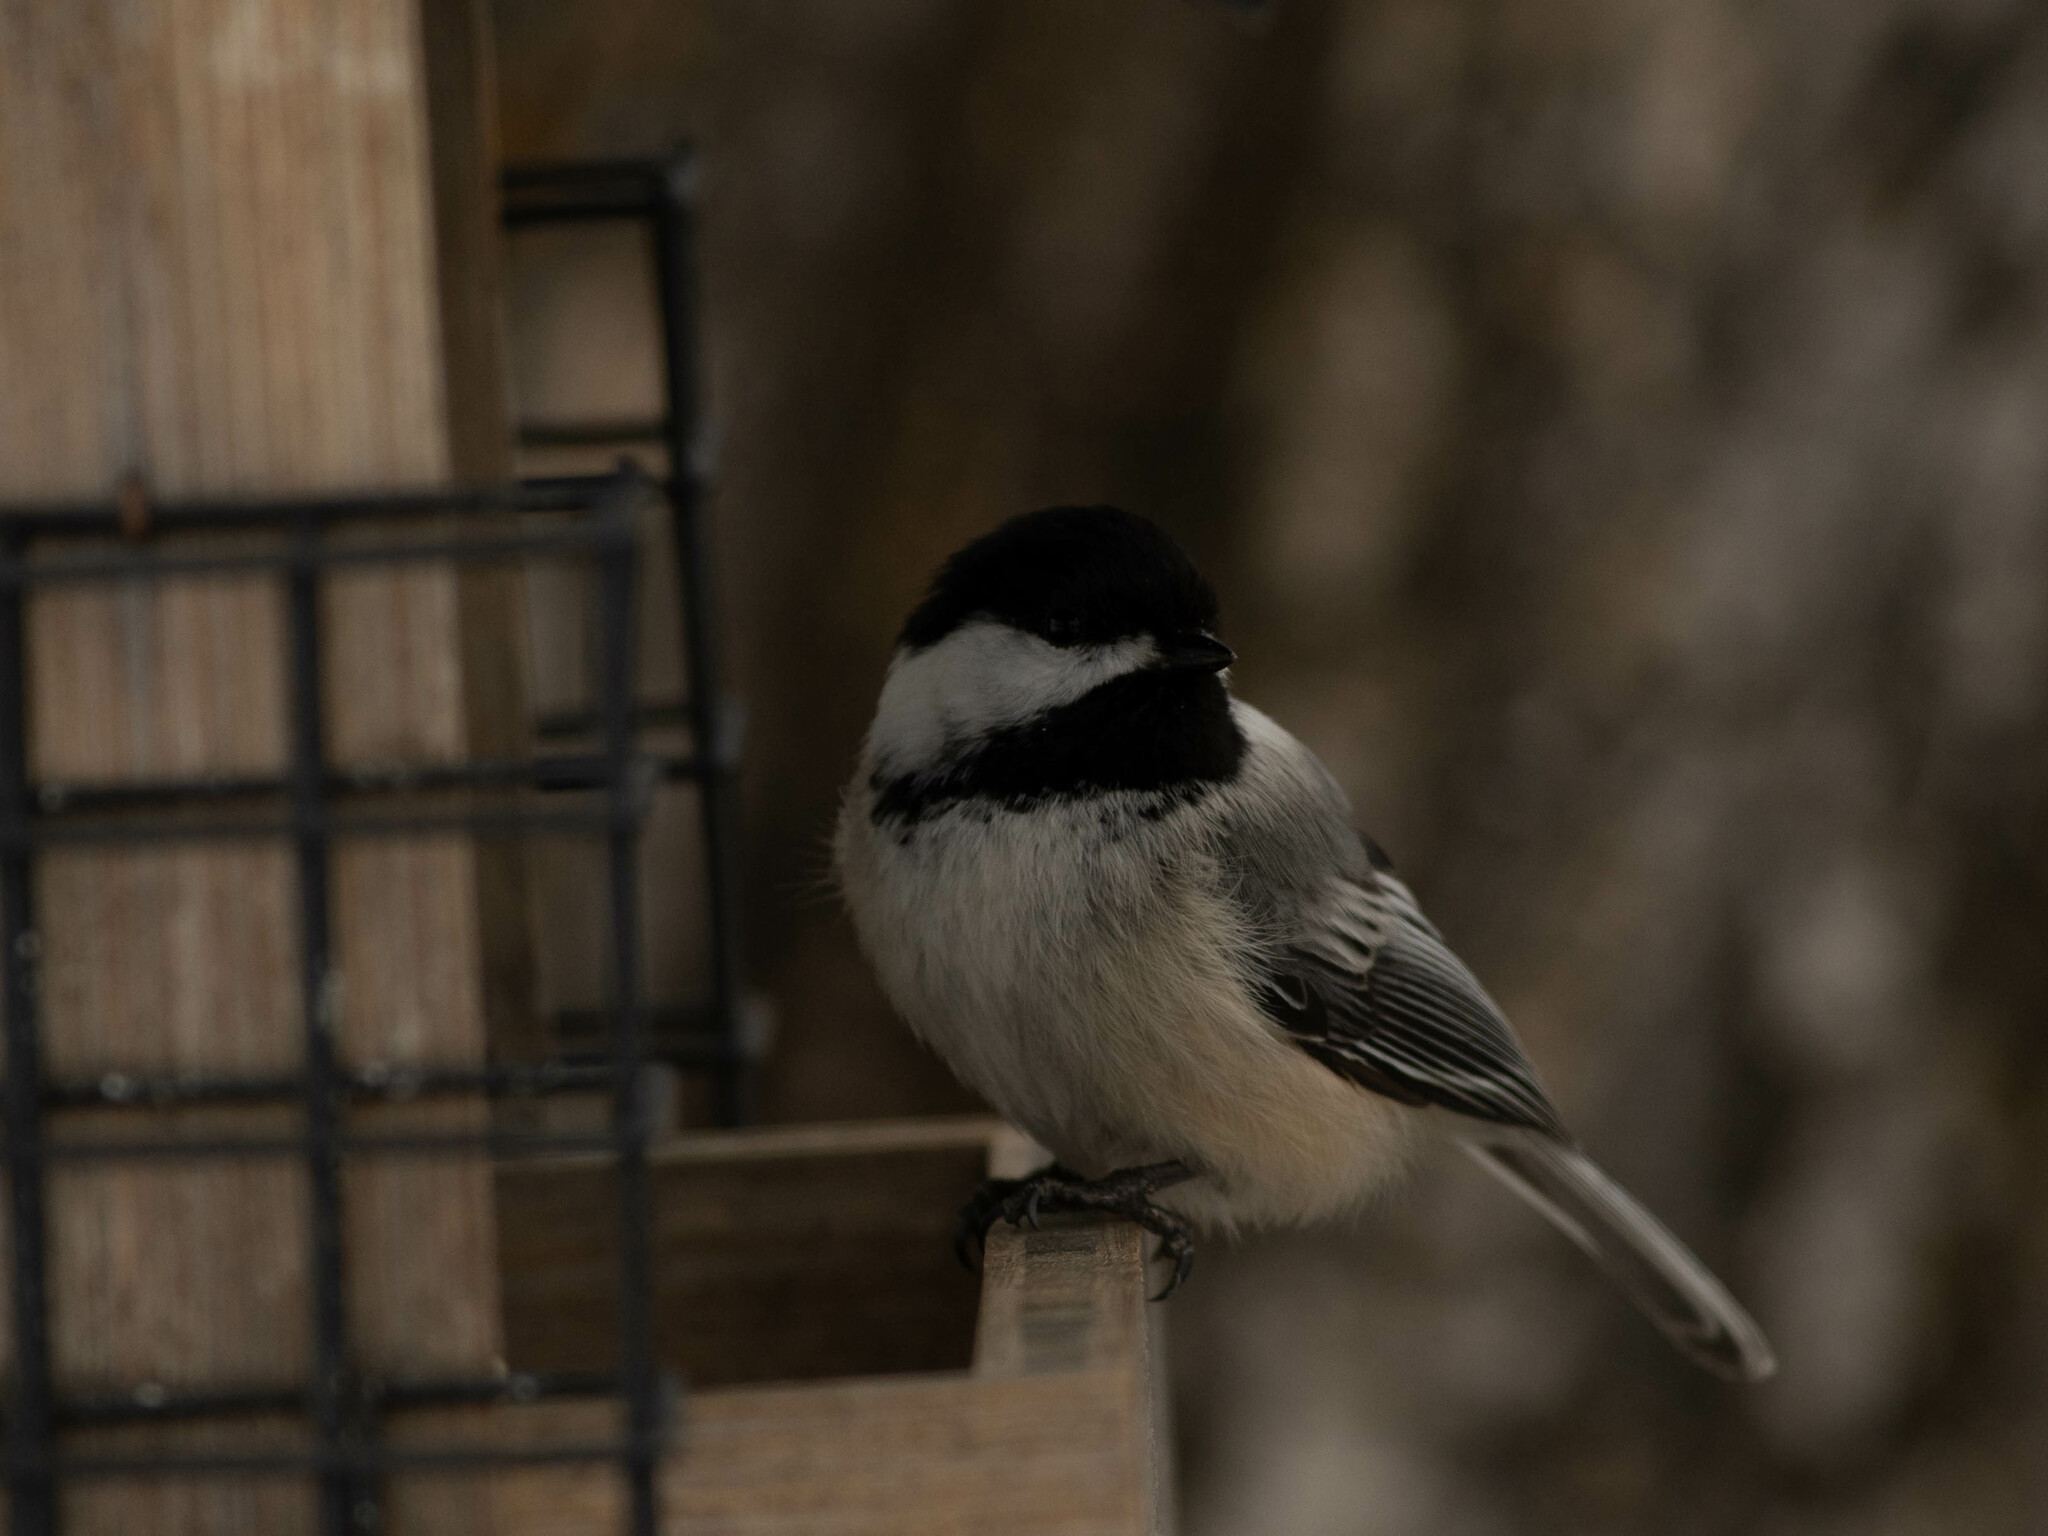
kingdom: Animalia
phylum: Chordata
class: Aves
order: Passeriformes
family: Paridae
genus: Poecile
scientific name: Poecile atricapillus
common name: Black-capped chickadee
